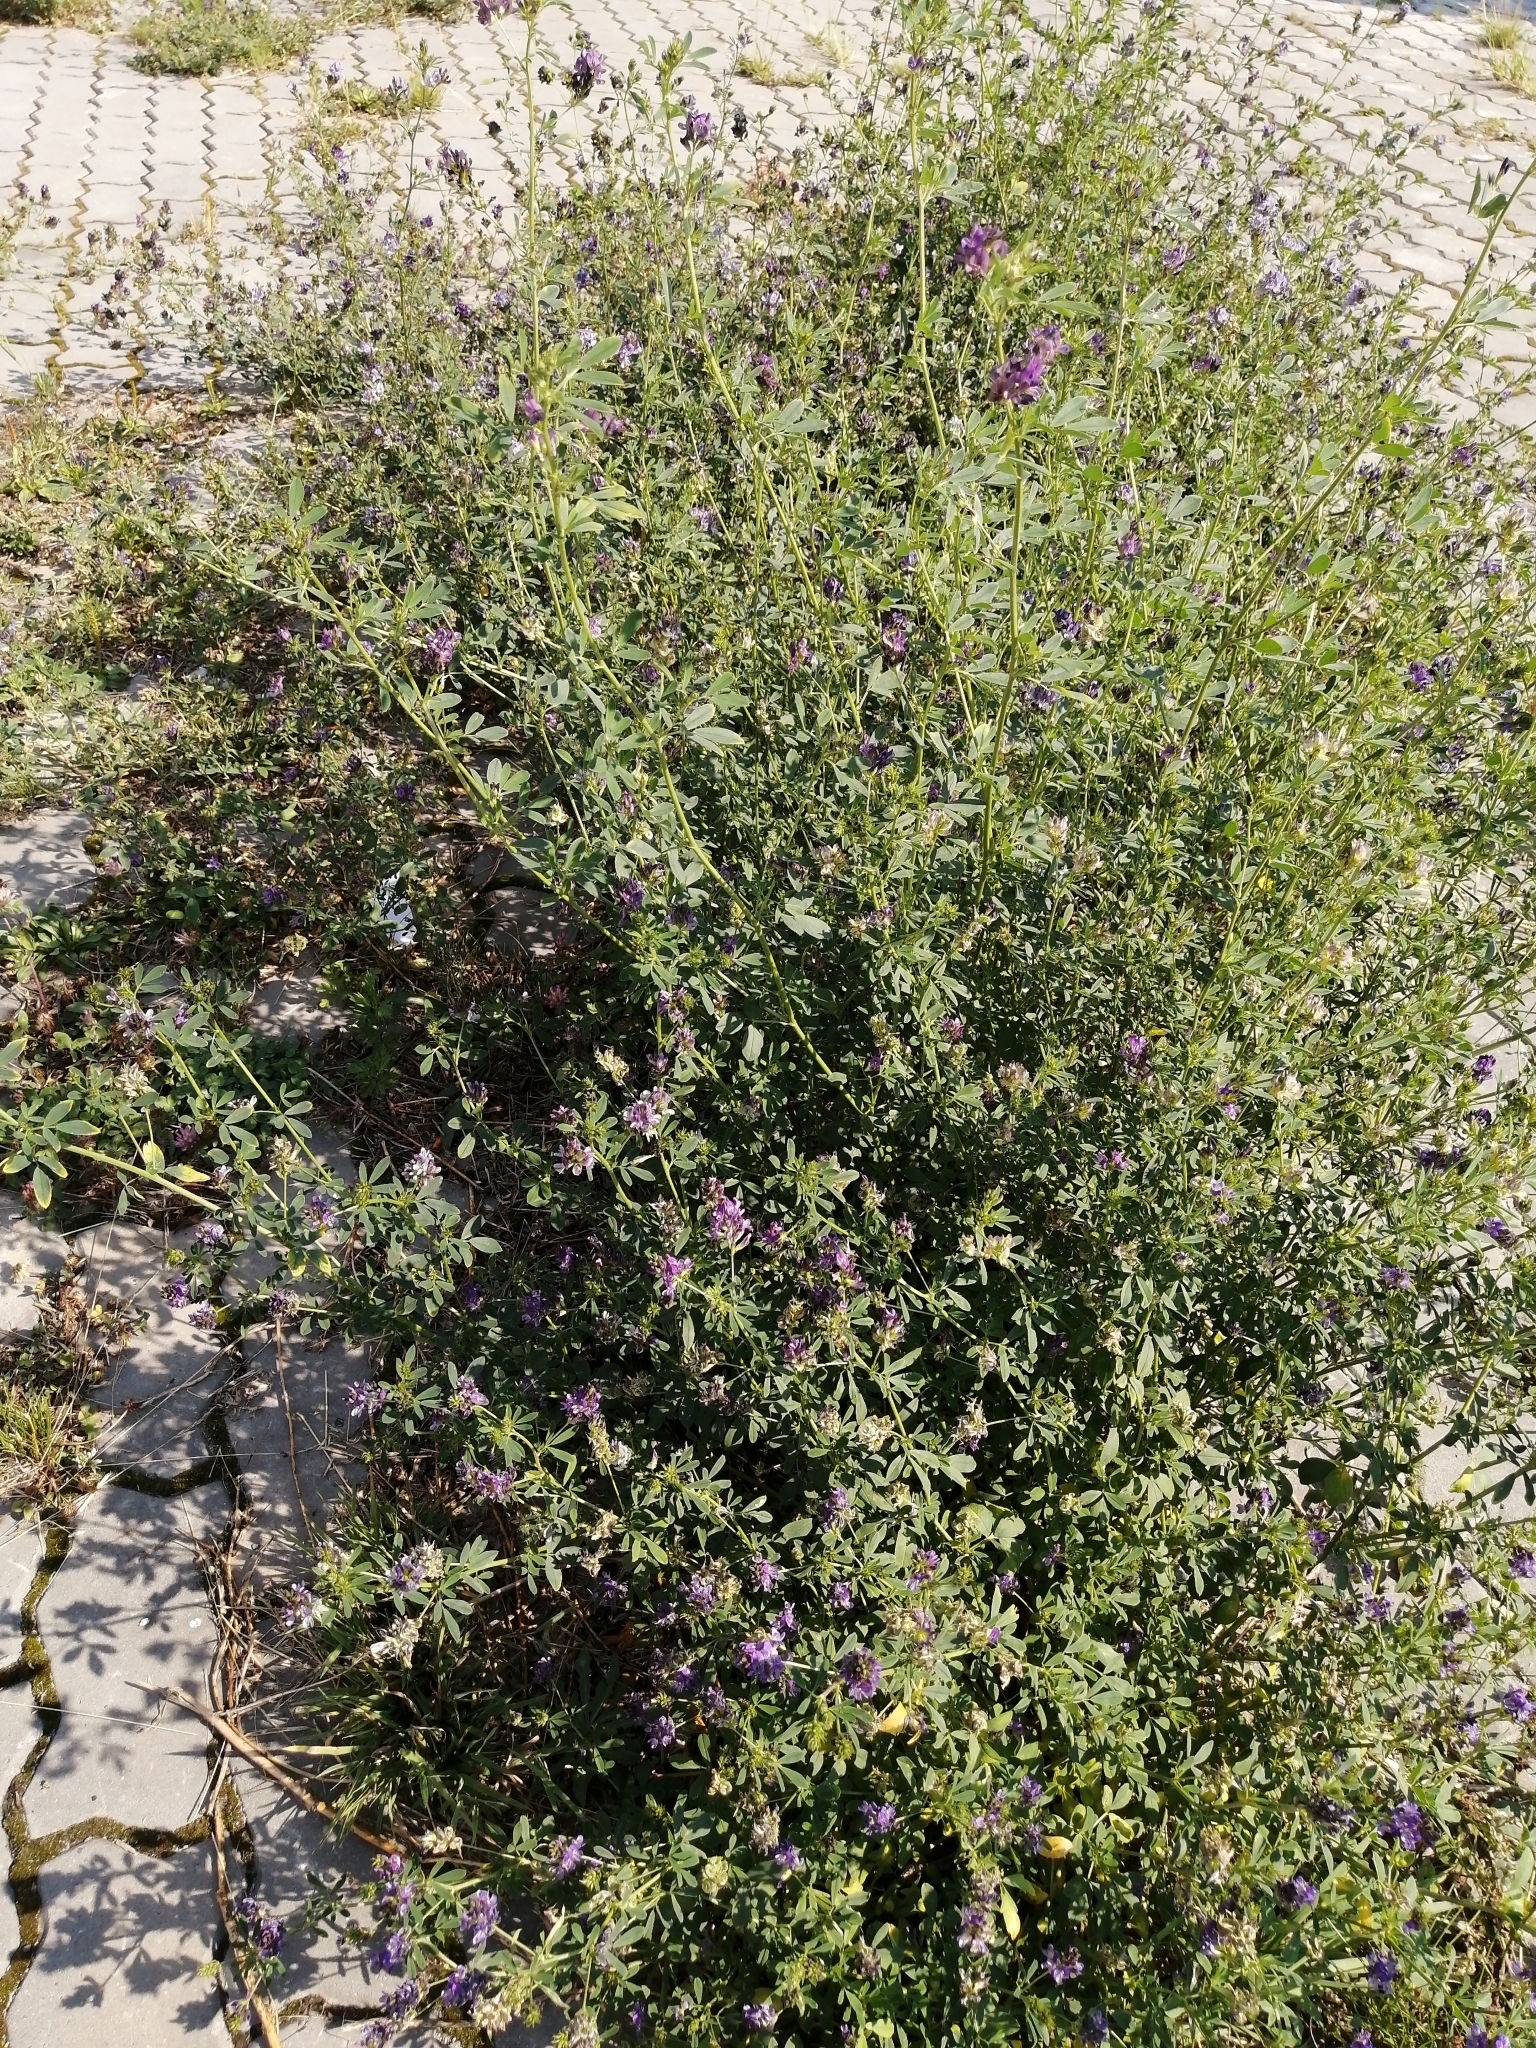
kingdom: Plantae
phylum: Tracheophyta
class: Magnoliopsida
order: Fabales
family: Fabaceae
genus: Medicago
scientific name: Medicago varia
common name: Sand lucerne
